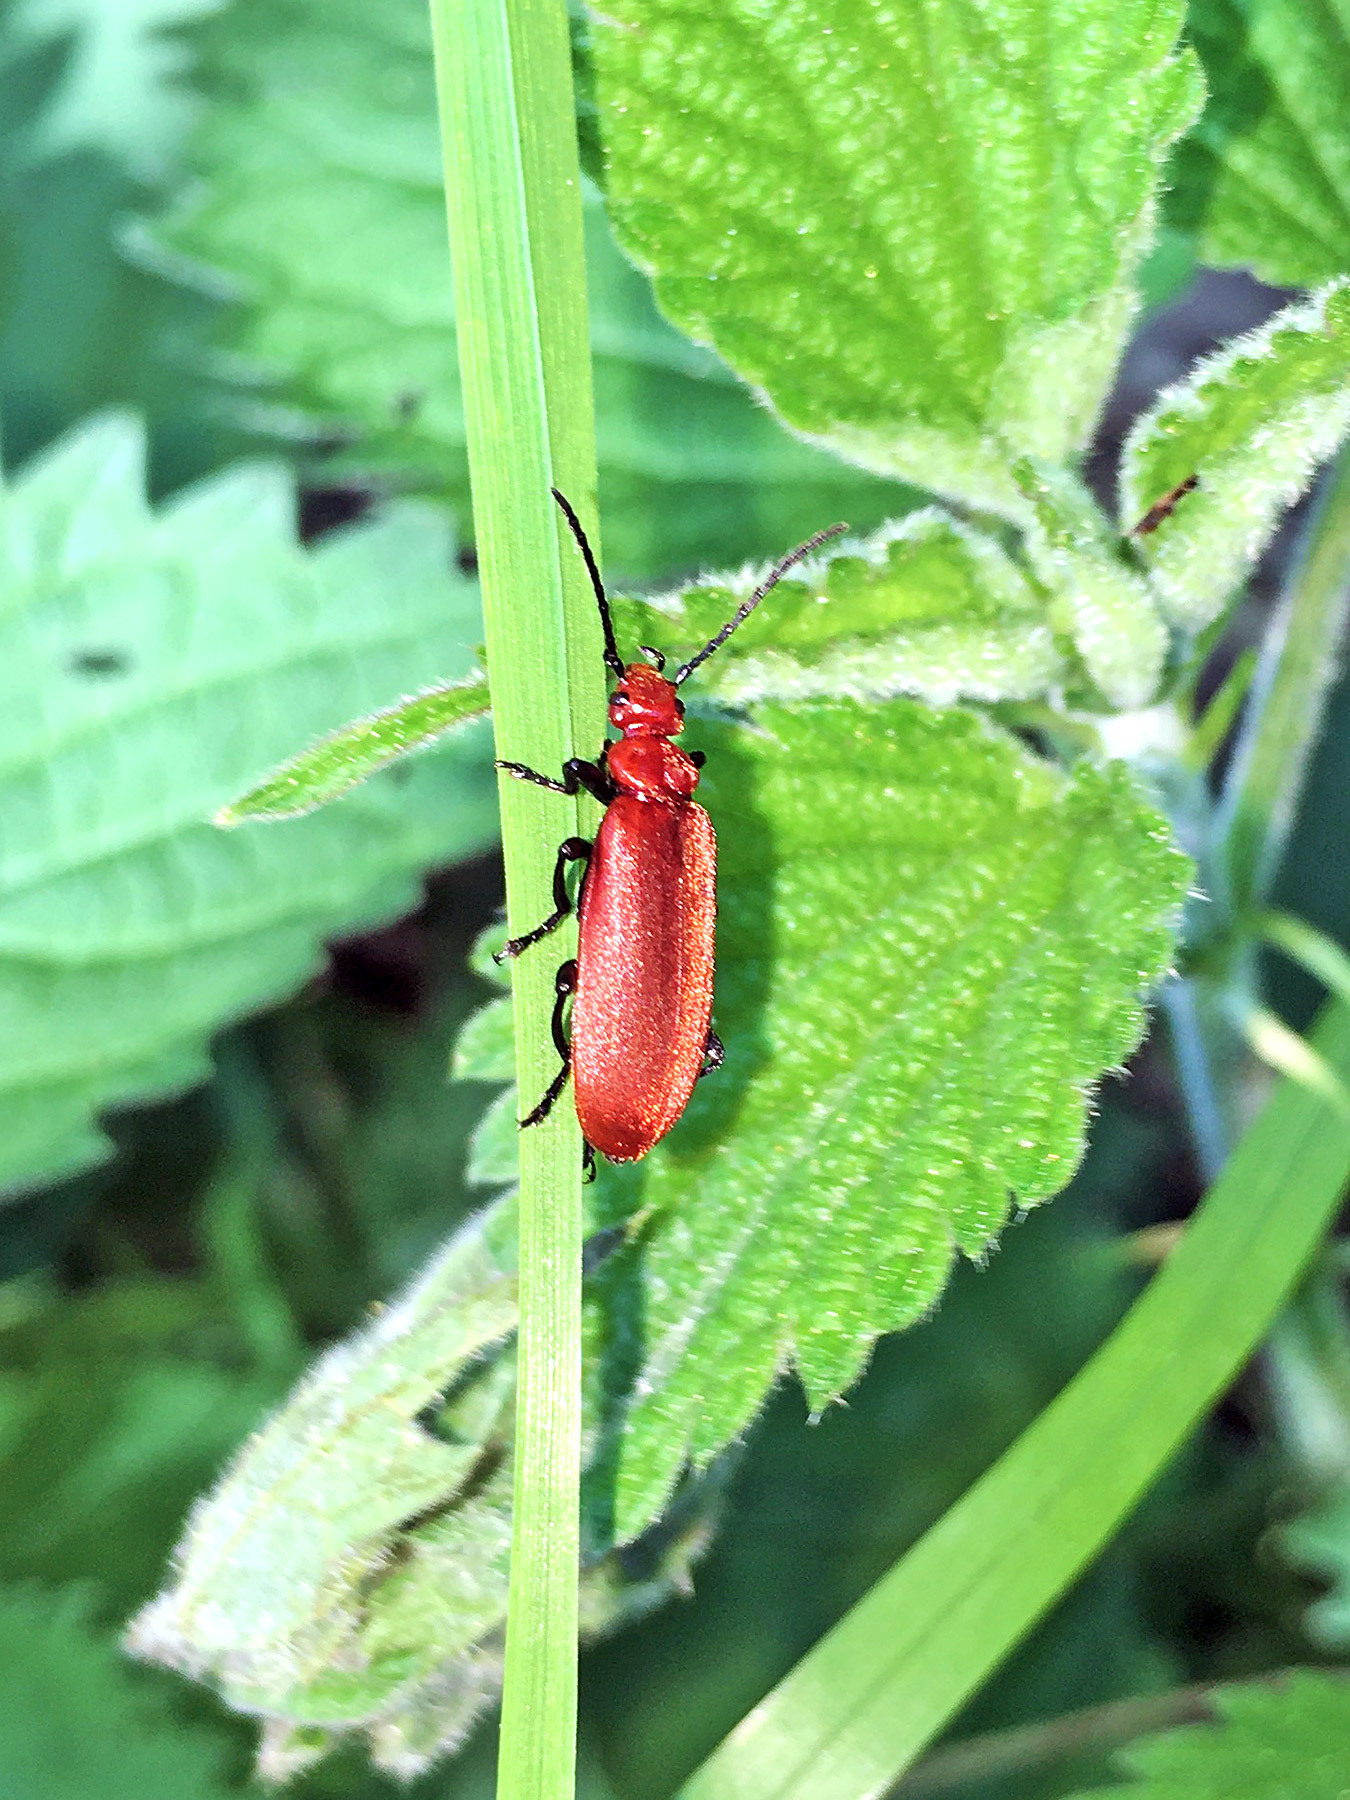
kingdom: Animalia
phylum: Arthropoda
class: Insecta
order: Coleoptera
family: Pyrochroidae
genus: Pyrochroa
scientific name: Pyrochroa serraticornis
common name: Red-headed cardinal beetle
